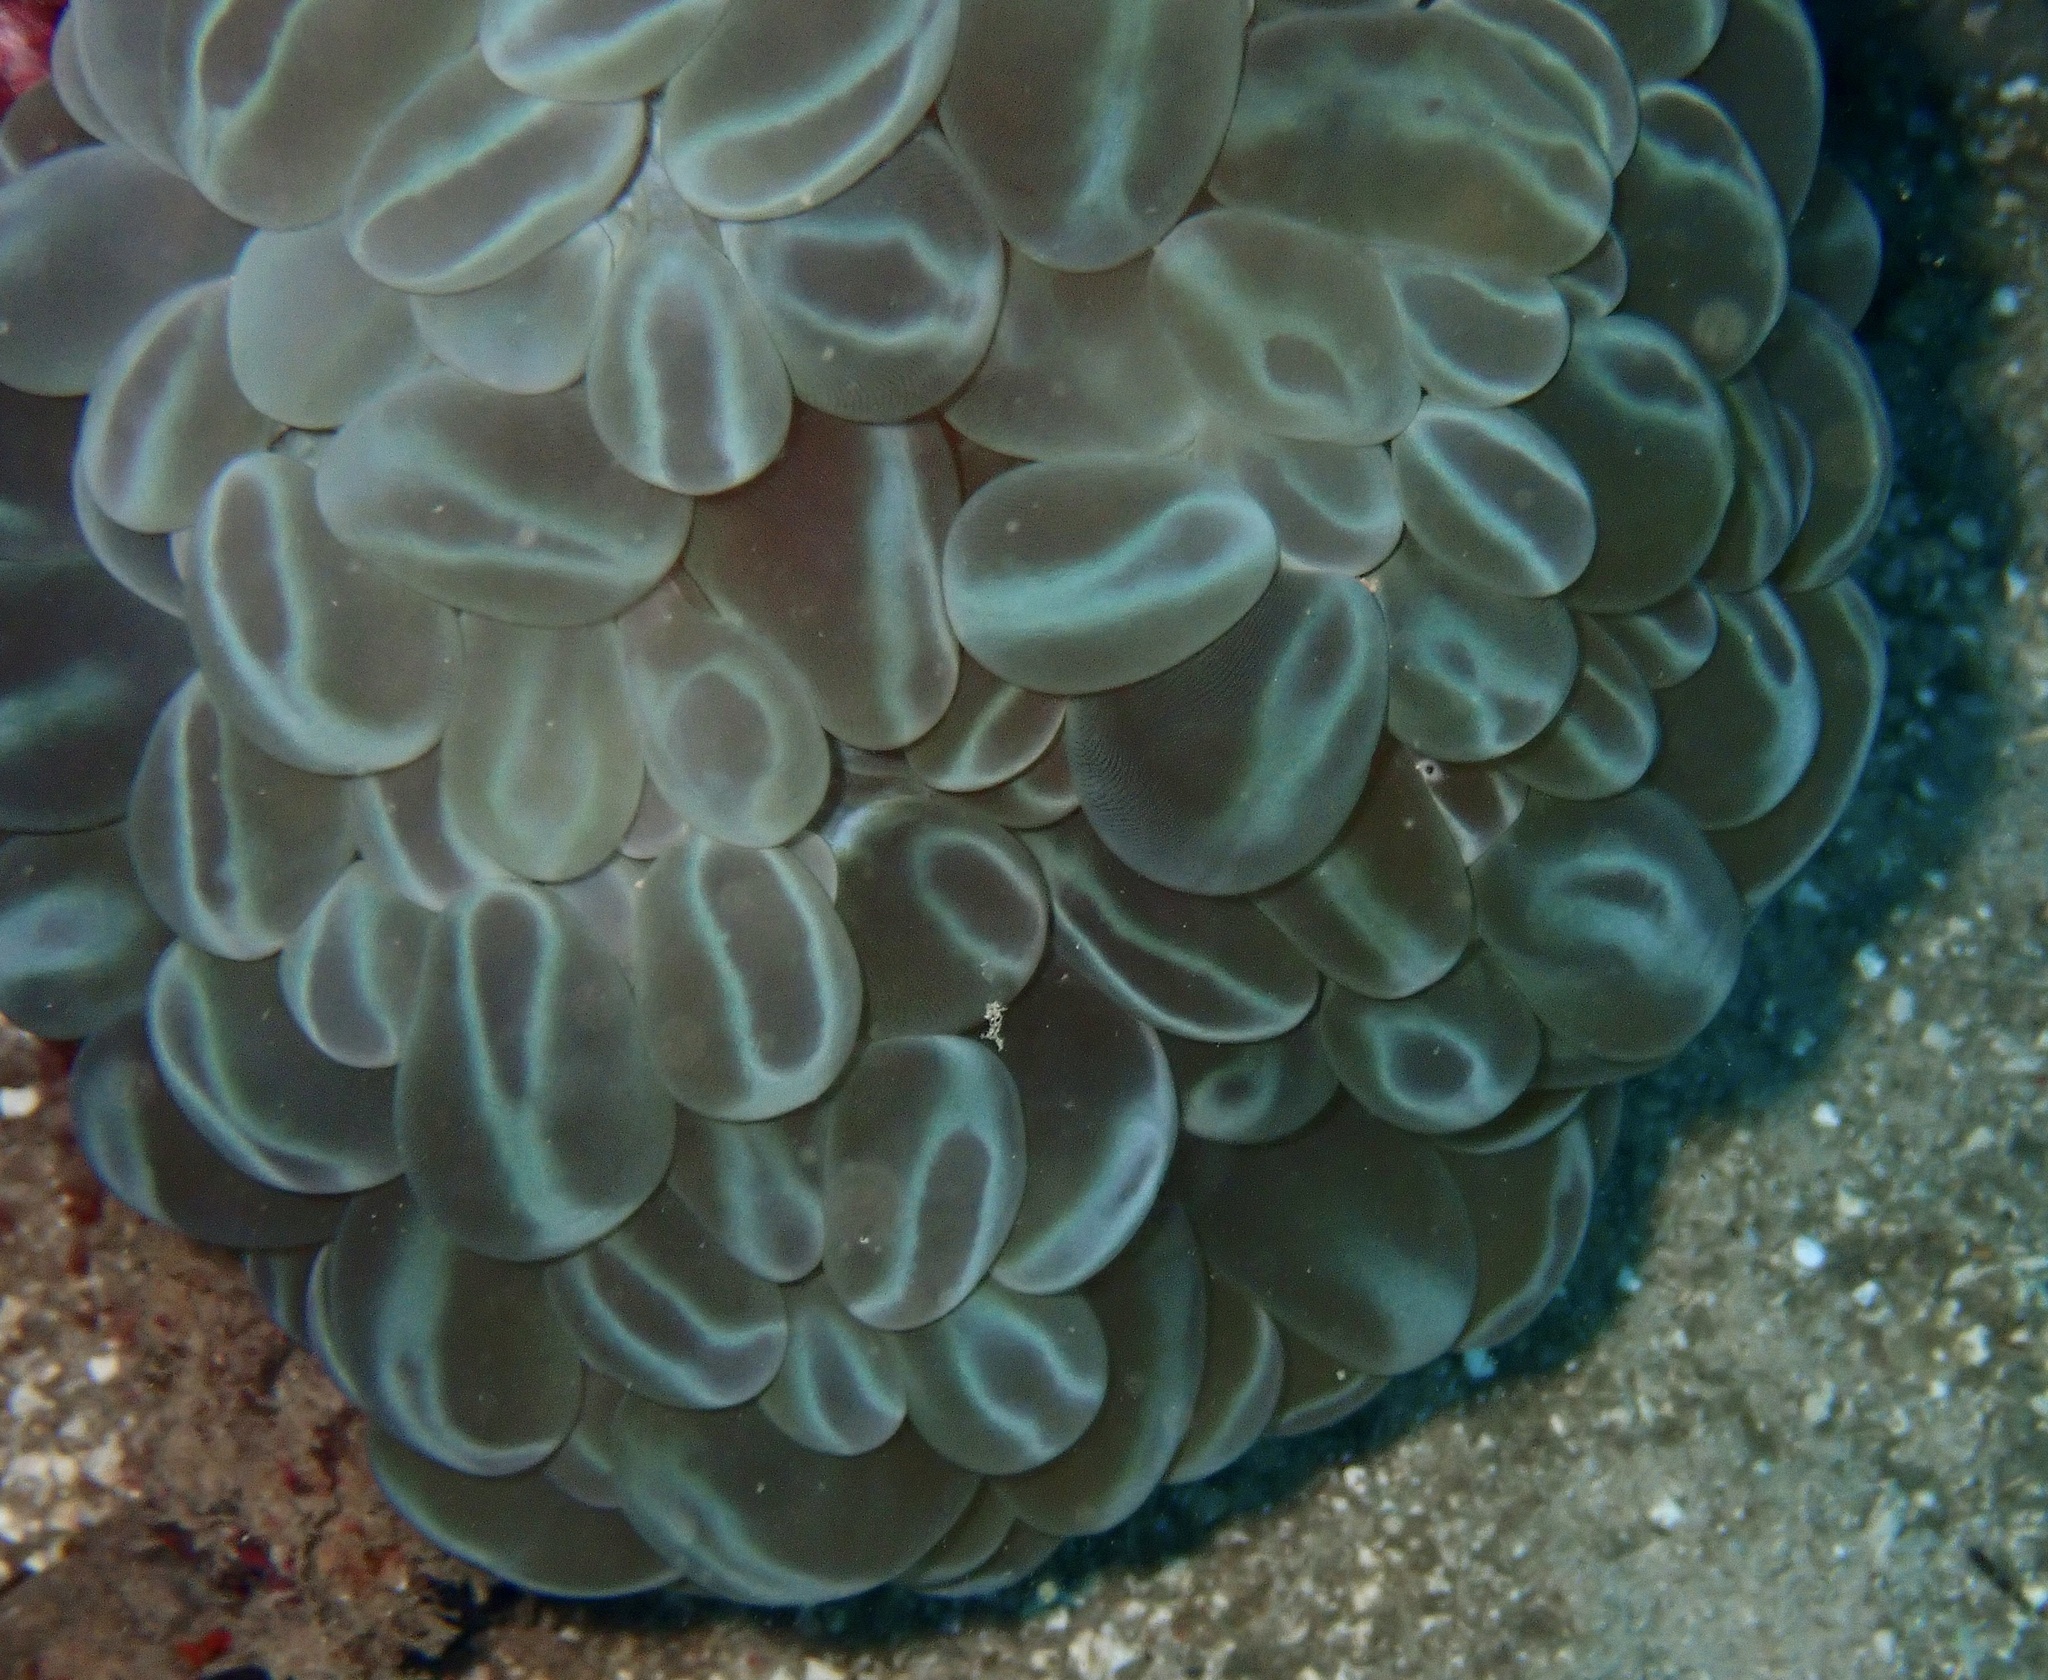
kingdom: Animalia
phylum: Cnidaria
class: Anthozoa
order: Scleractinia
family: Plerogyridae
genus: Plerogyra
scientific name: Plerogyra sinuosa
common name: Bubble coral
